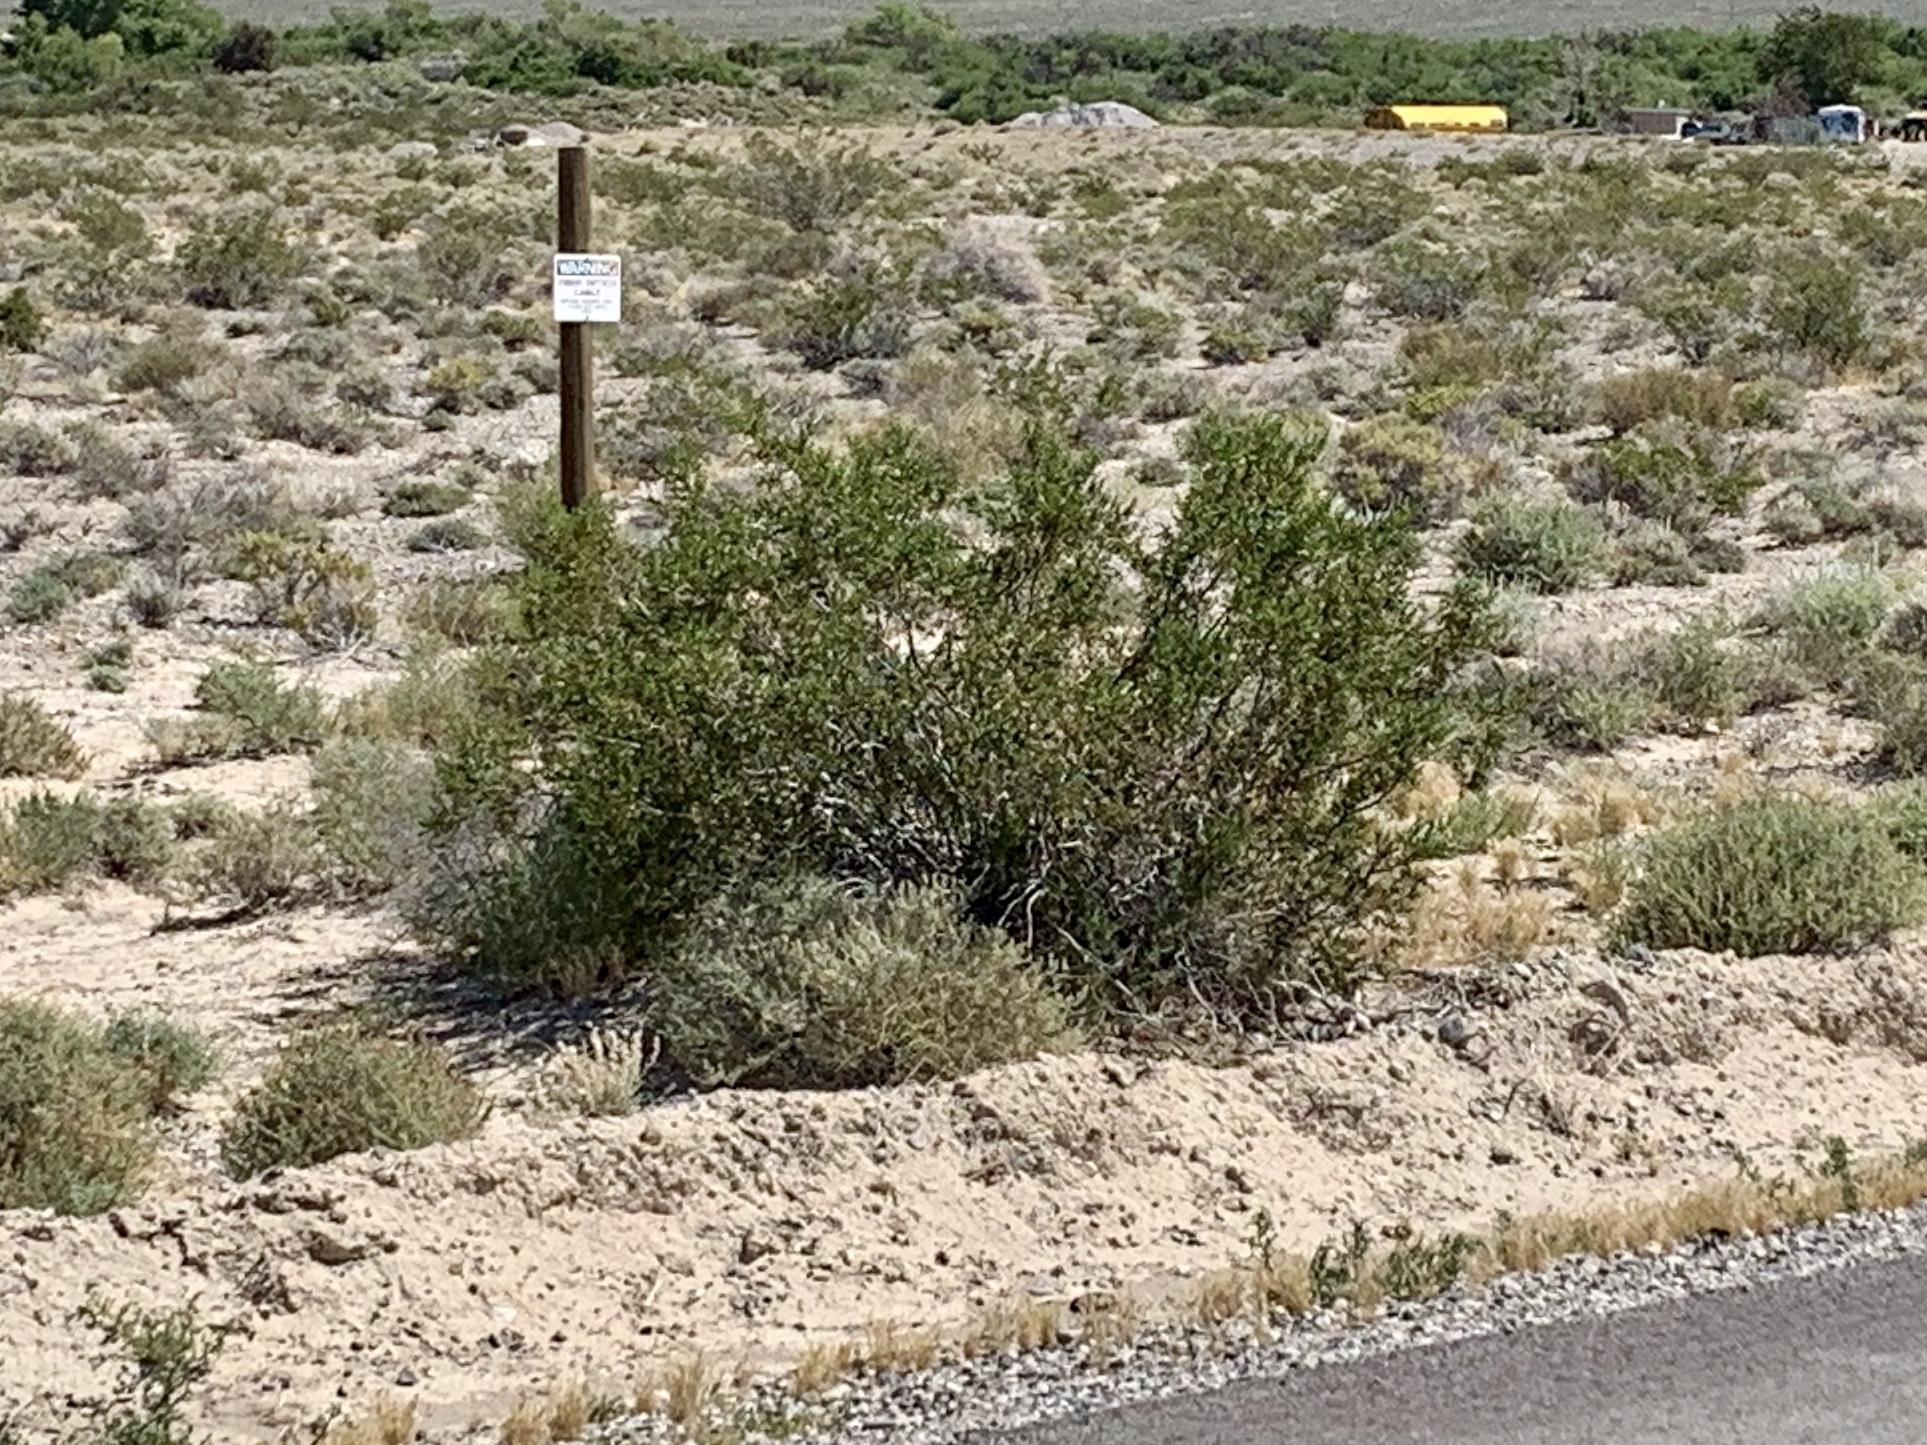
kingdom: Plantae
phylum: Tracheophyta
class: Magnoliopsida
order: Zygophyllales
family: Zygophyllaceae
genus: Larrea
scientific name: Larrea tridentata
